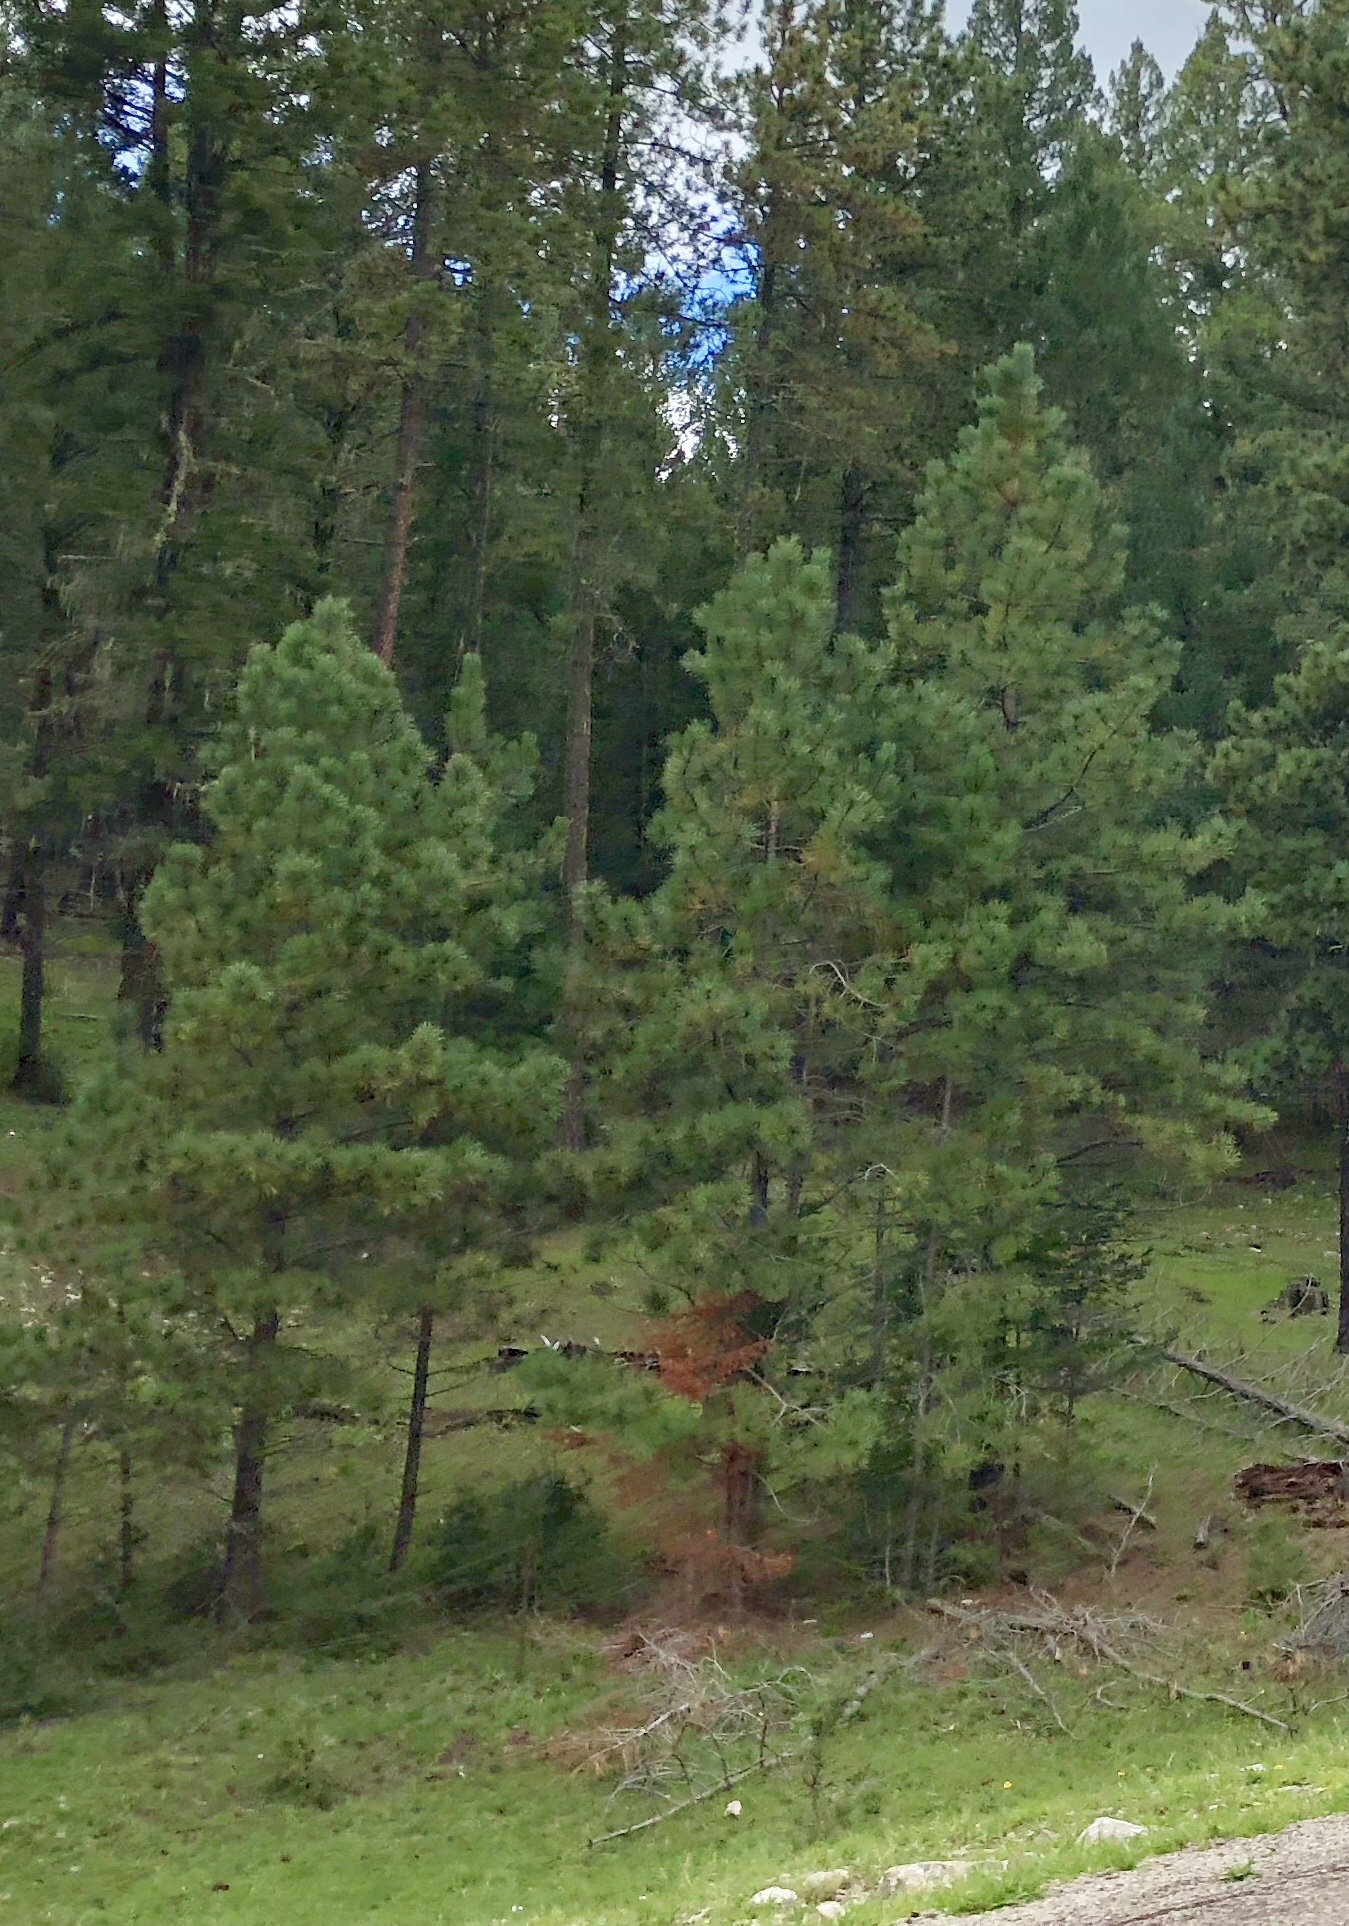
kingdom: Plantae
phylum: Tracheophyta
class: Pinopsida
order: Pinales
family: Pinaceae
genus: Pinus
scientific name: Pinus ponderosa
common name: Western yellow-pine
